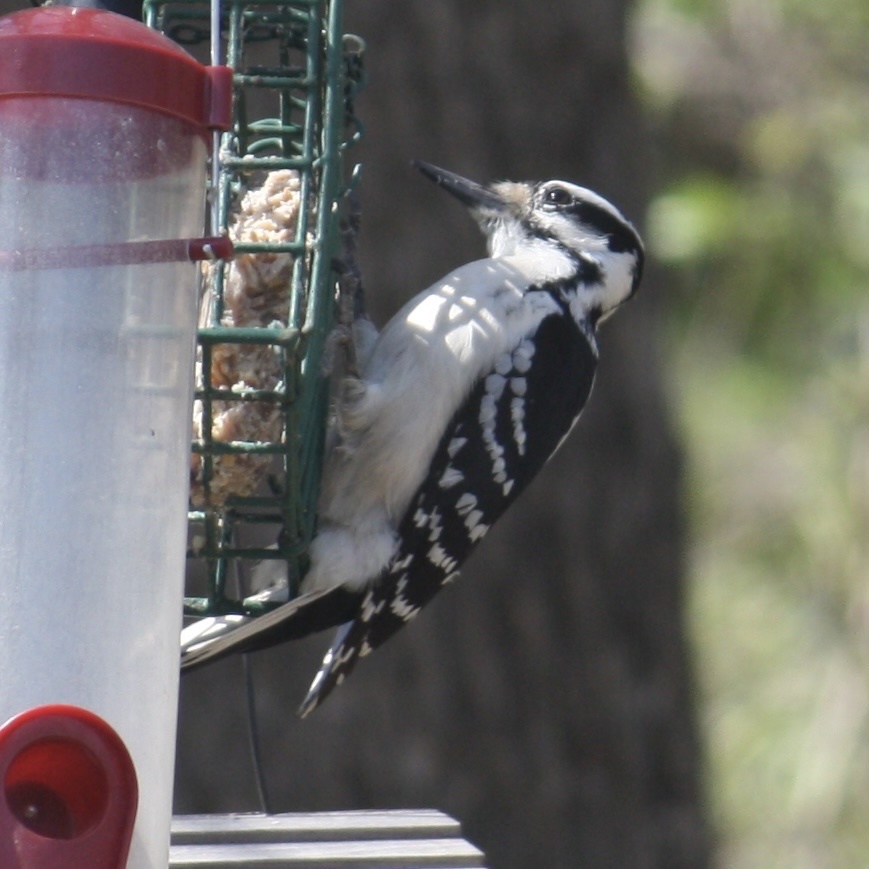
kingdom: Animalia
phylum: Chordata
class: Aves
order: Piciformes
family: Picidae
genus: Leuconotopicus
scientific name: Leuconotopicus villosus
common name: Hairy woodpecker
